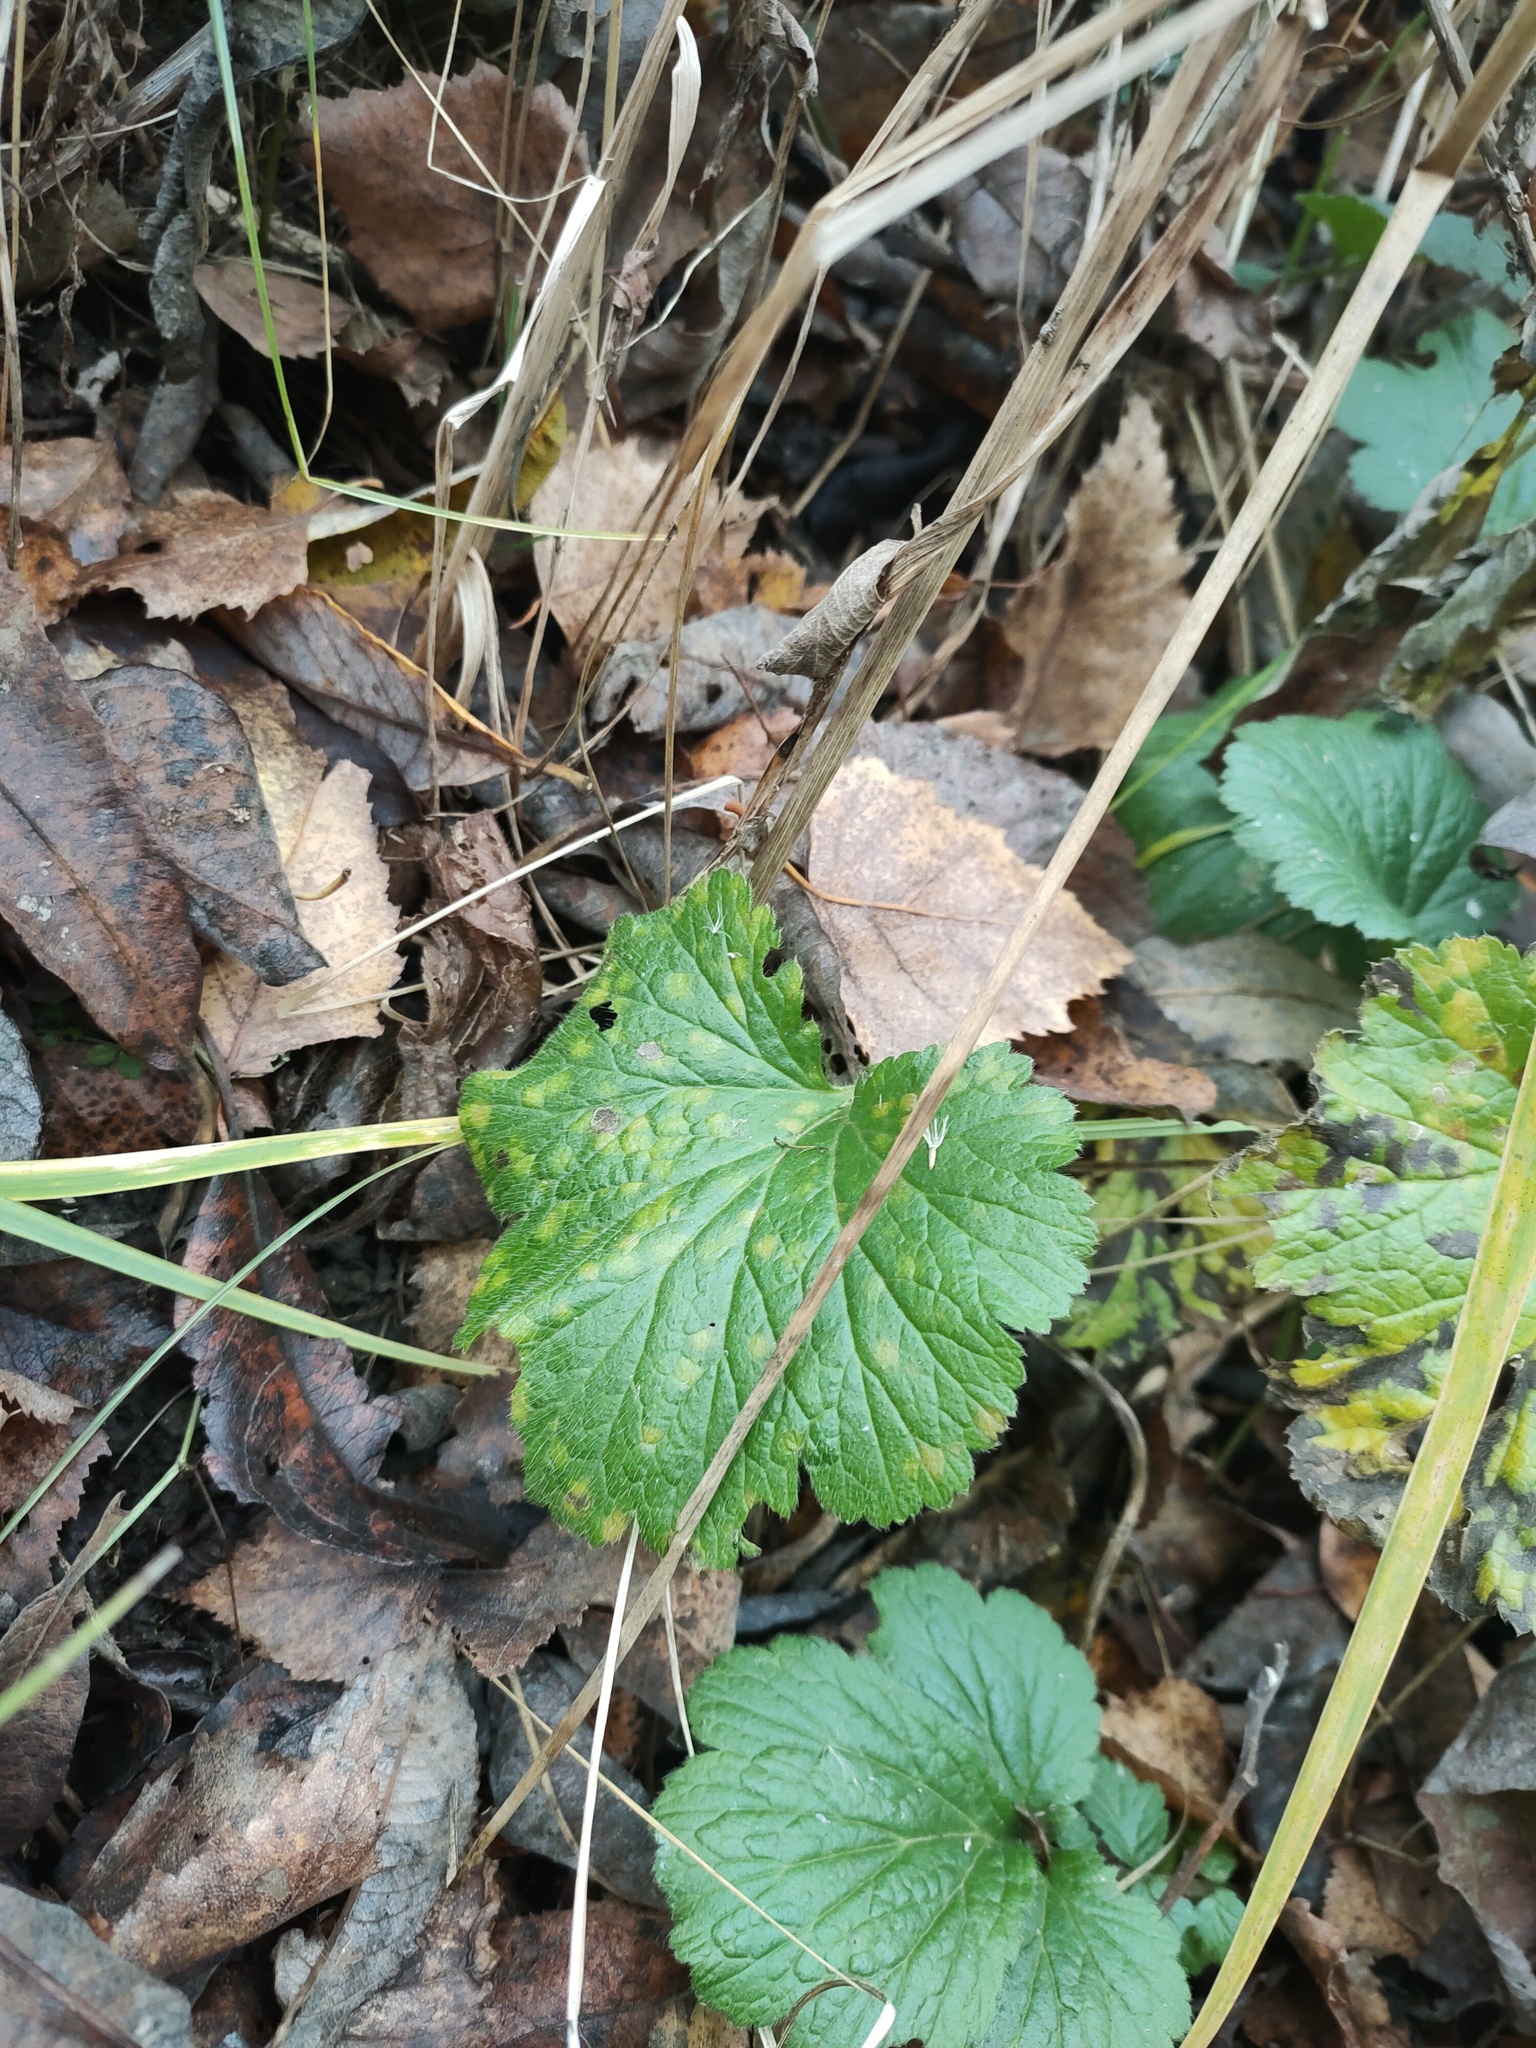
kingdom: Plantae
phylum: Tracheophyta
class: Magnoliopsida
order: Rosales
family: Rosaceae
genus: Geum
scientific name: Geum
